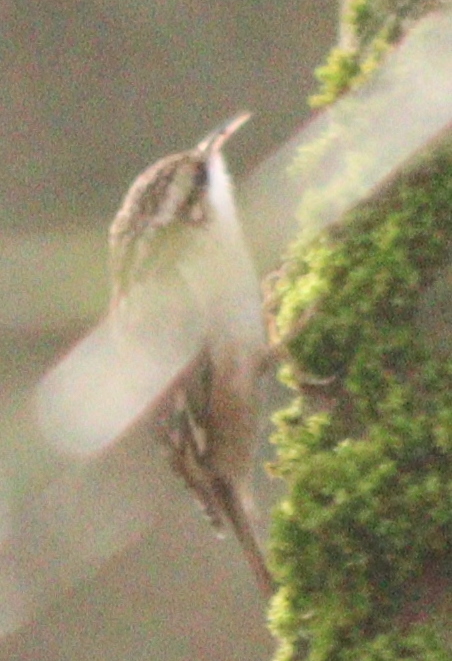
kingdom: Animalia
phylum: Chordata
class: Aves
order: Passeriformes
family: Certhiidae
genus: Certhia
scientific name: Certhia brachydactyla
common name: Short-toed treecreeper
